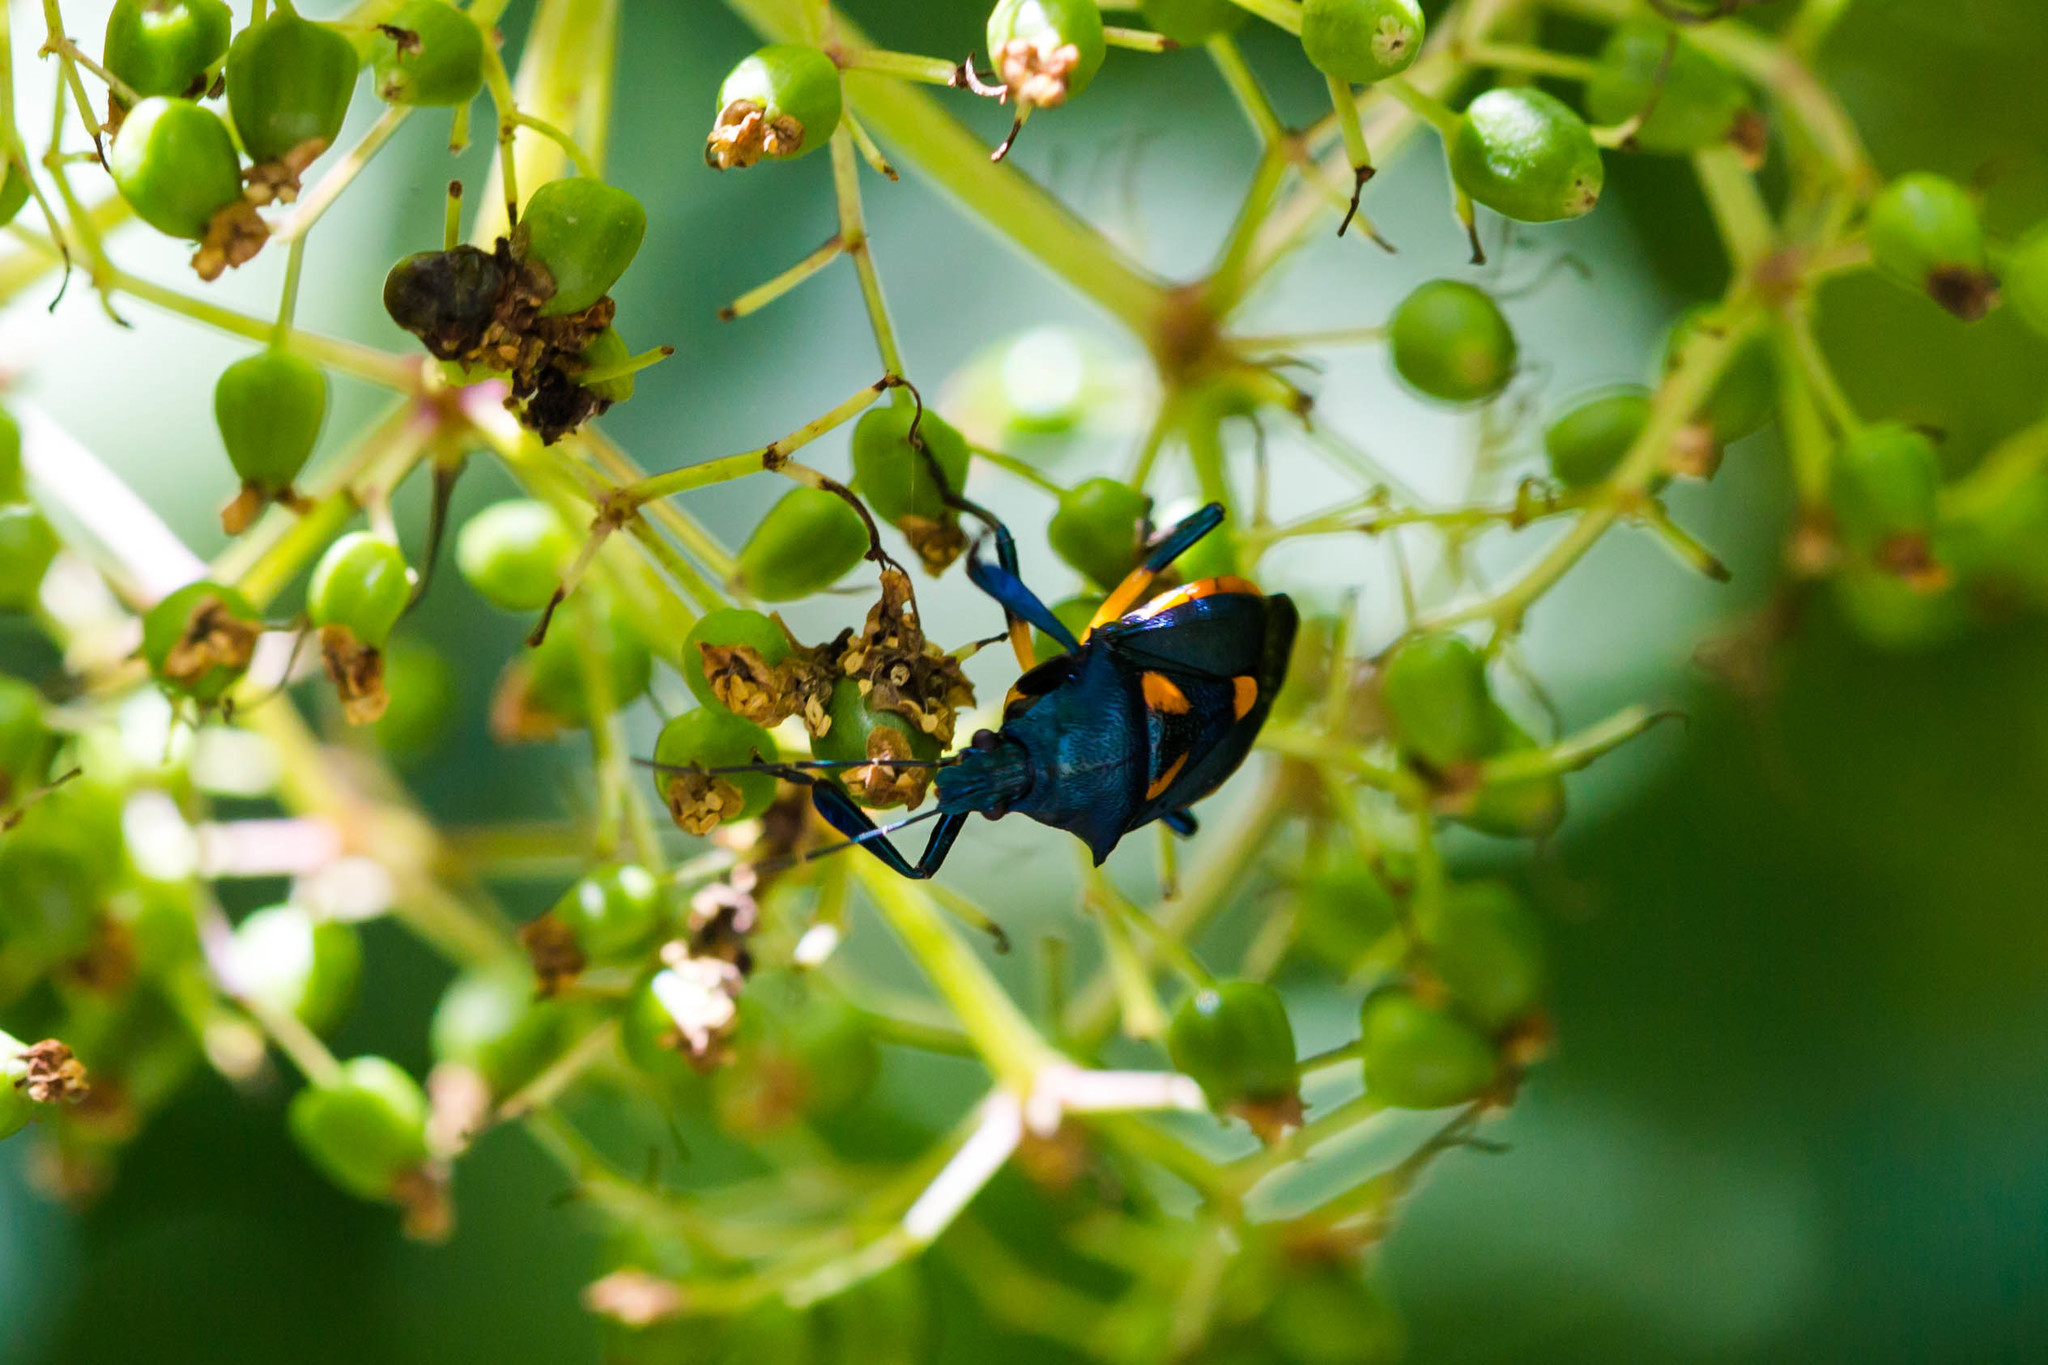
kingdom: Animalia
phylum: Arthropoda
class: Insecta
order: Hemiptera
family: Pentatomidae
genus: Euthyrhynchus
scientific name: Euthyrhynchus floridanus
